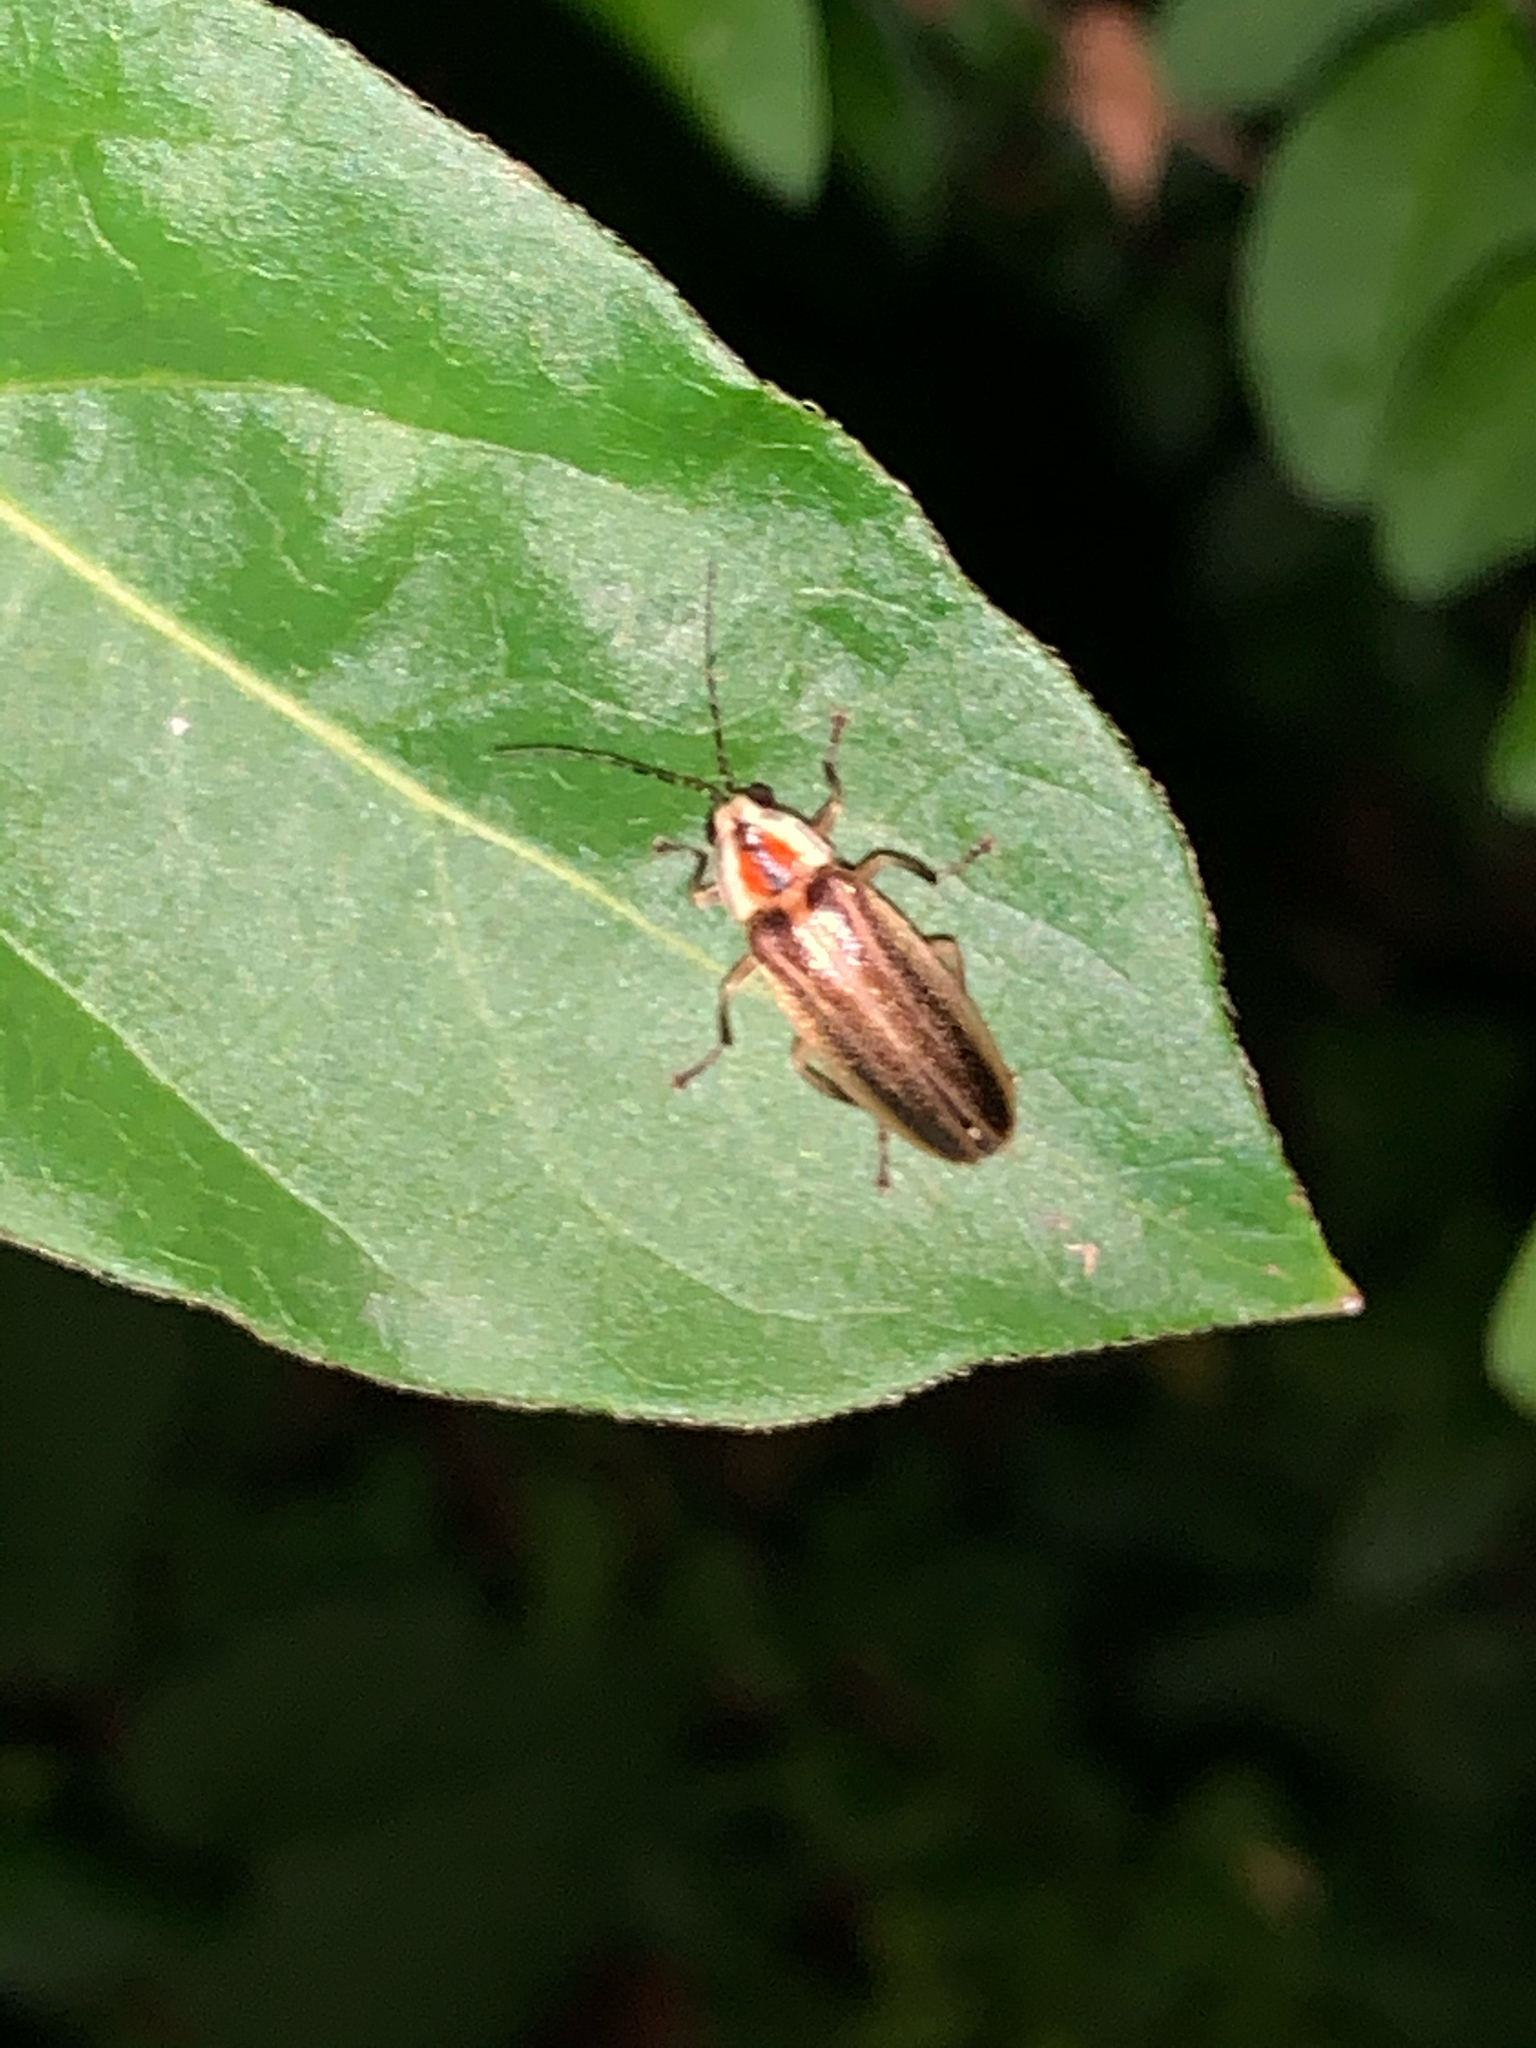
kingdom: Animalia
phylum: Arthropoda
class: Insecta
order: Coleoptera
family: Lampyridae
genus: Photuris
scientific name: Photuris
